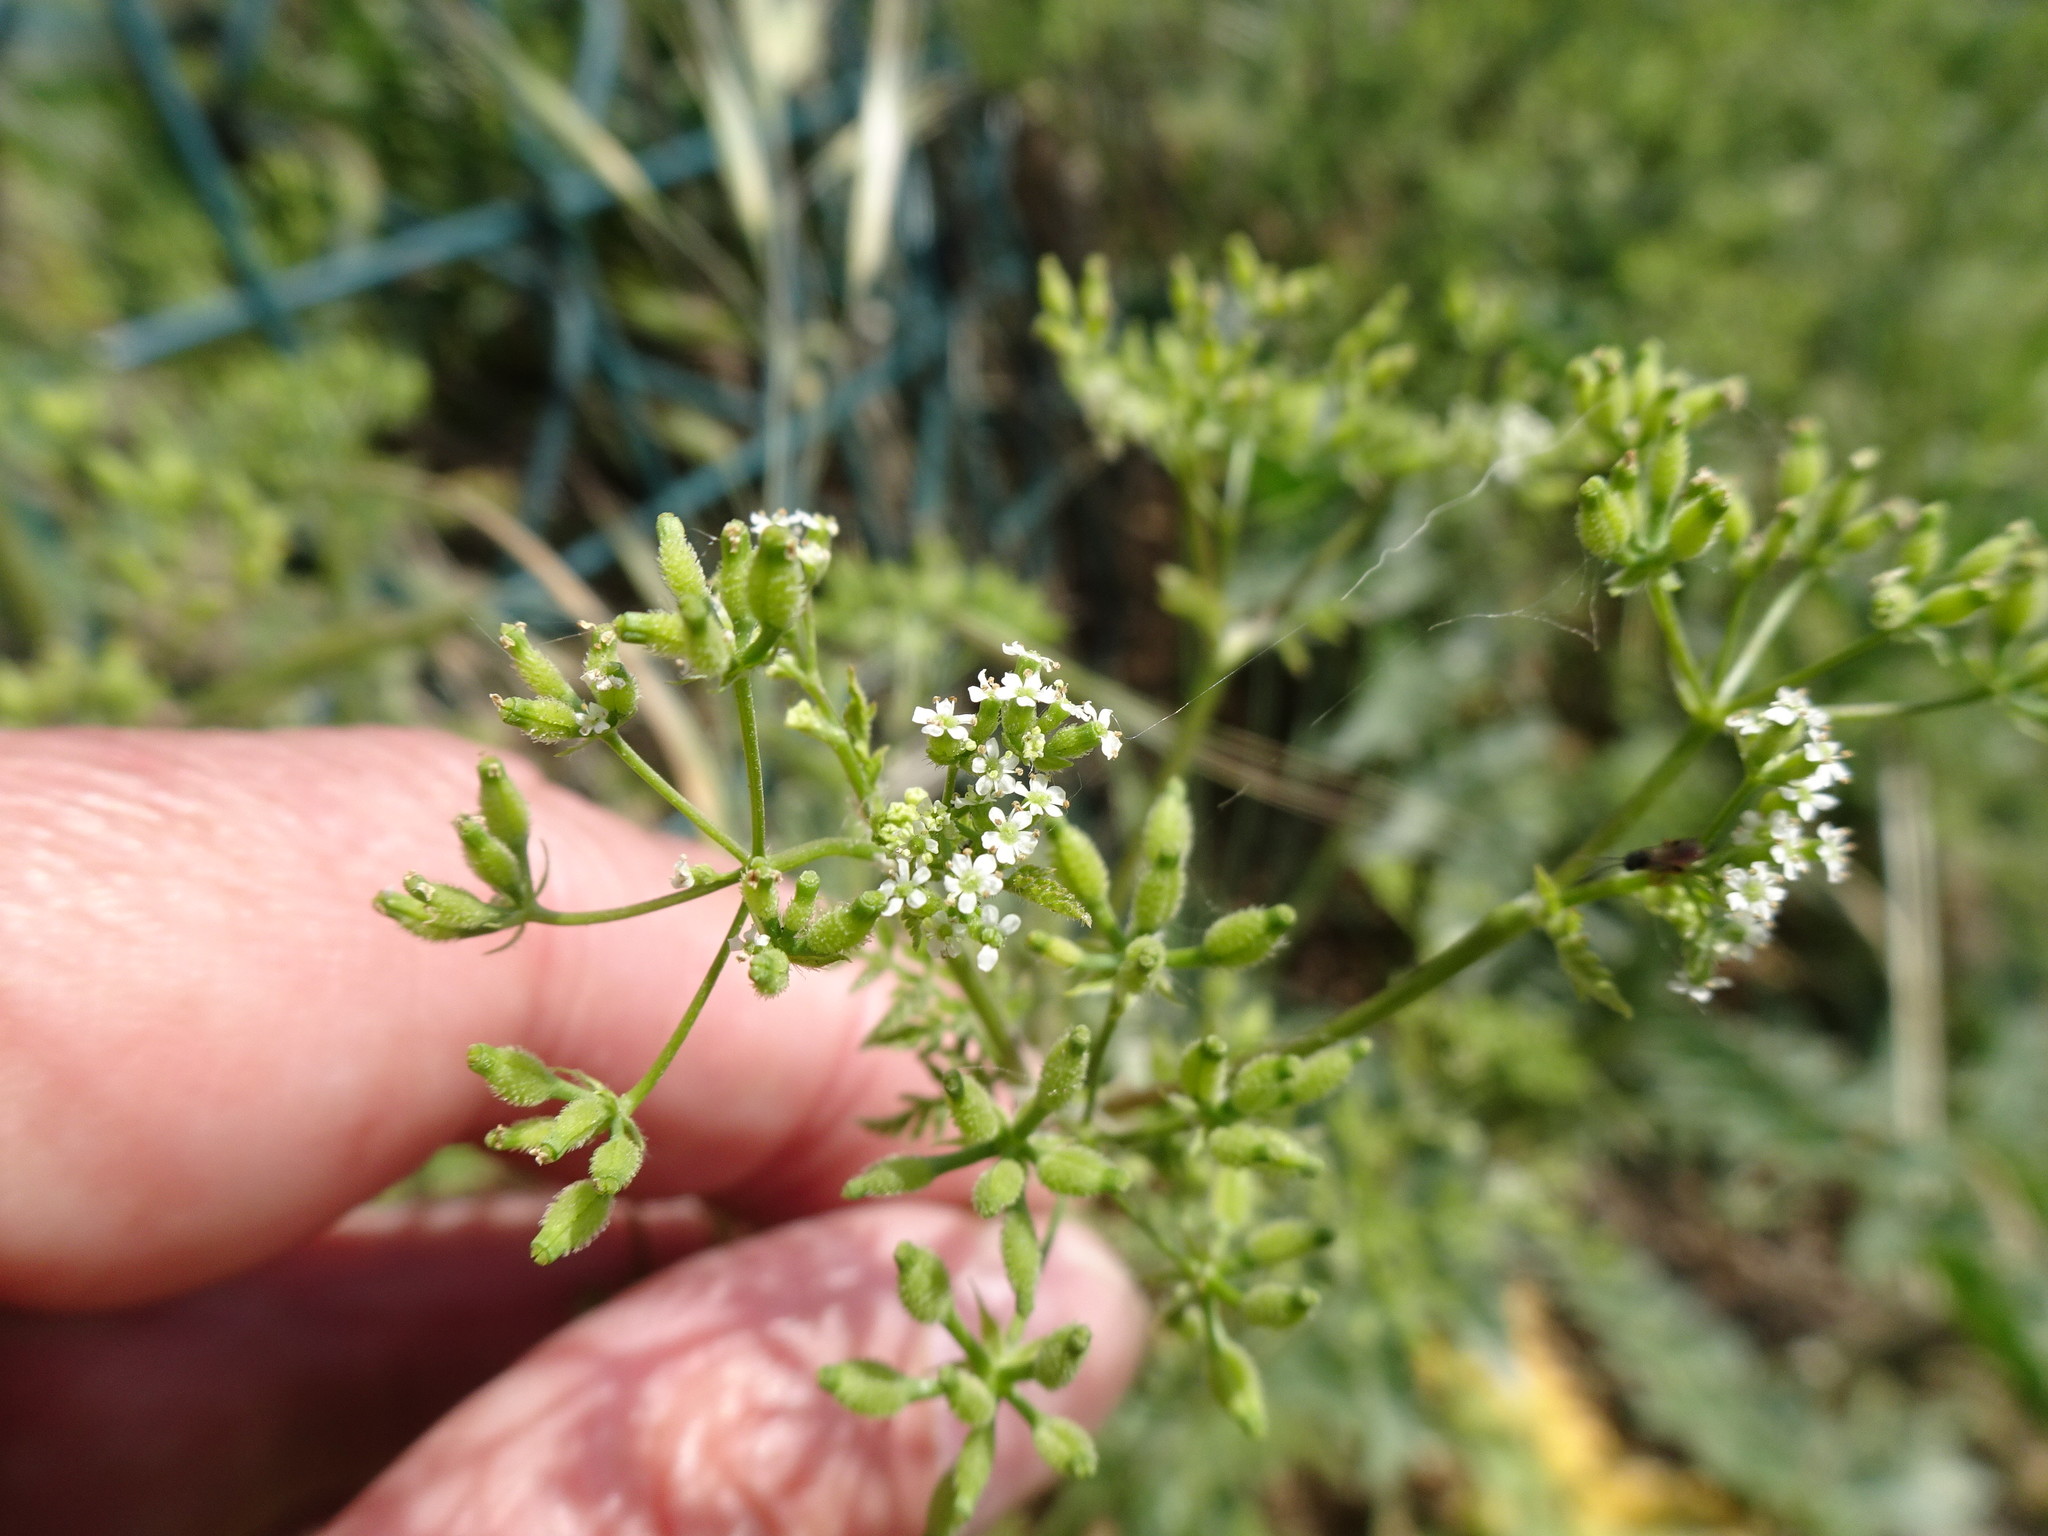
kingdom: Plantae
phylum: Tracheophyta
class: Magnoliopsida
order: Apiales
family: Apiaceae
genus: Anthriscus
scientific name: Anthriscus caucalis
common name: Bur chervil
